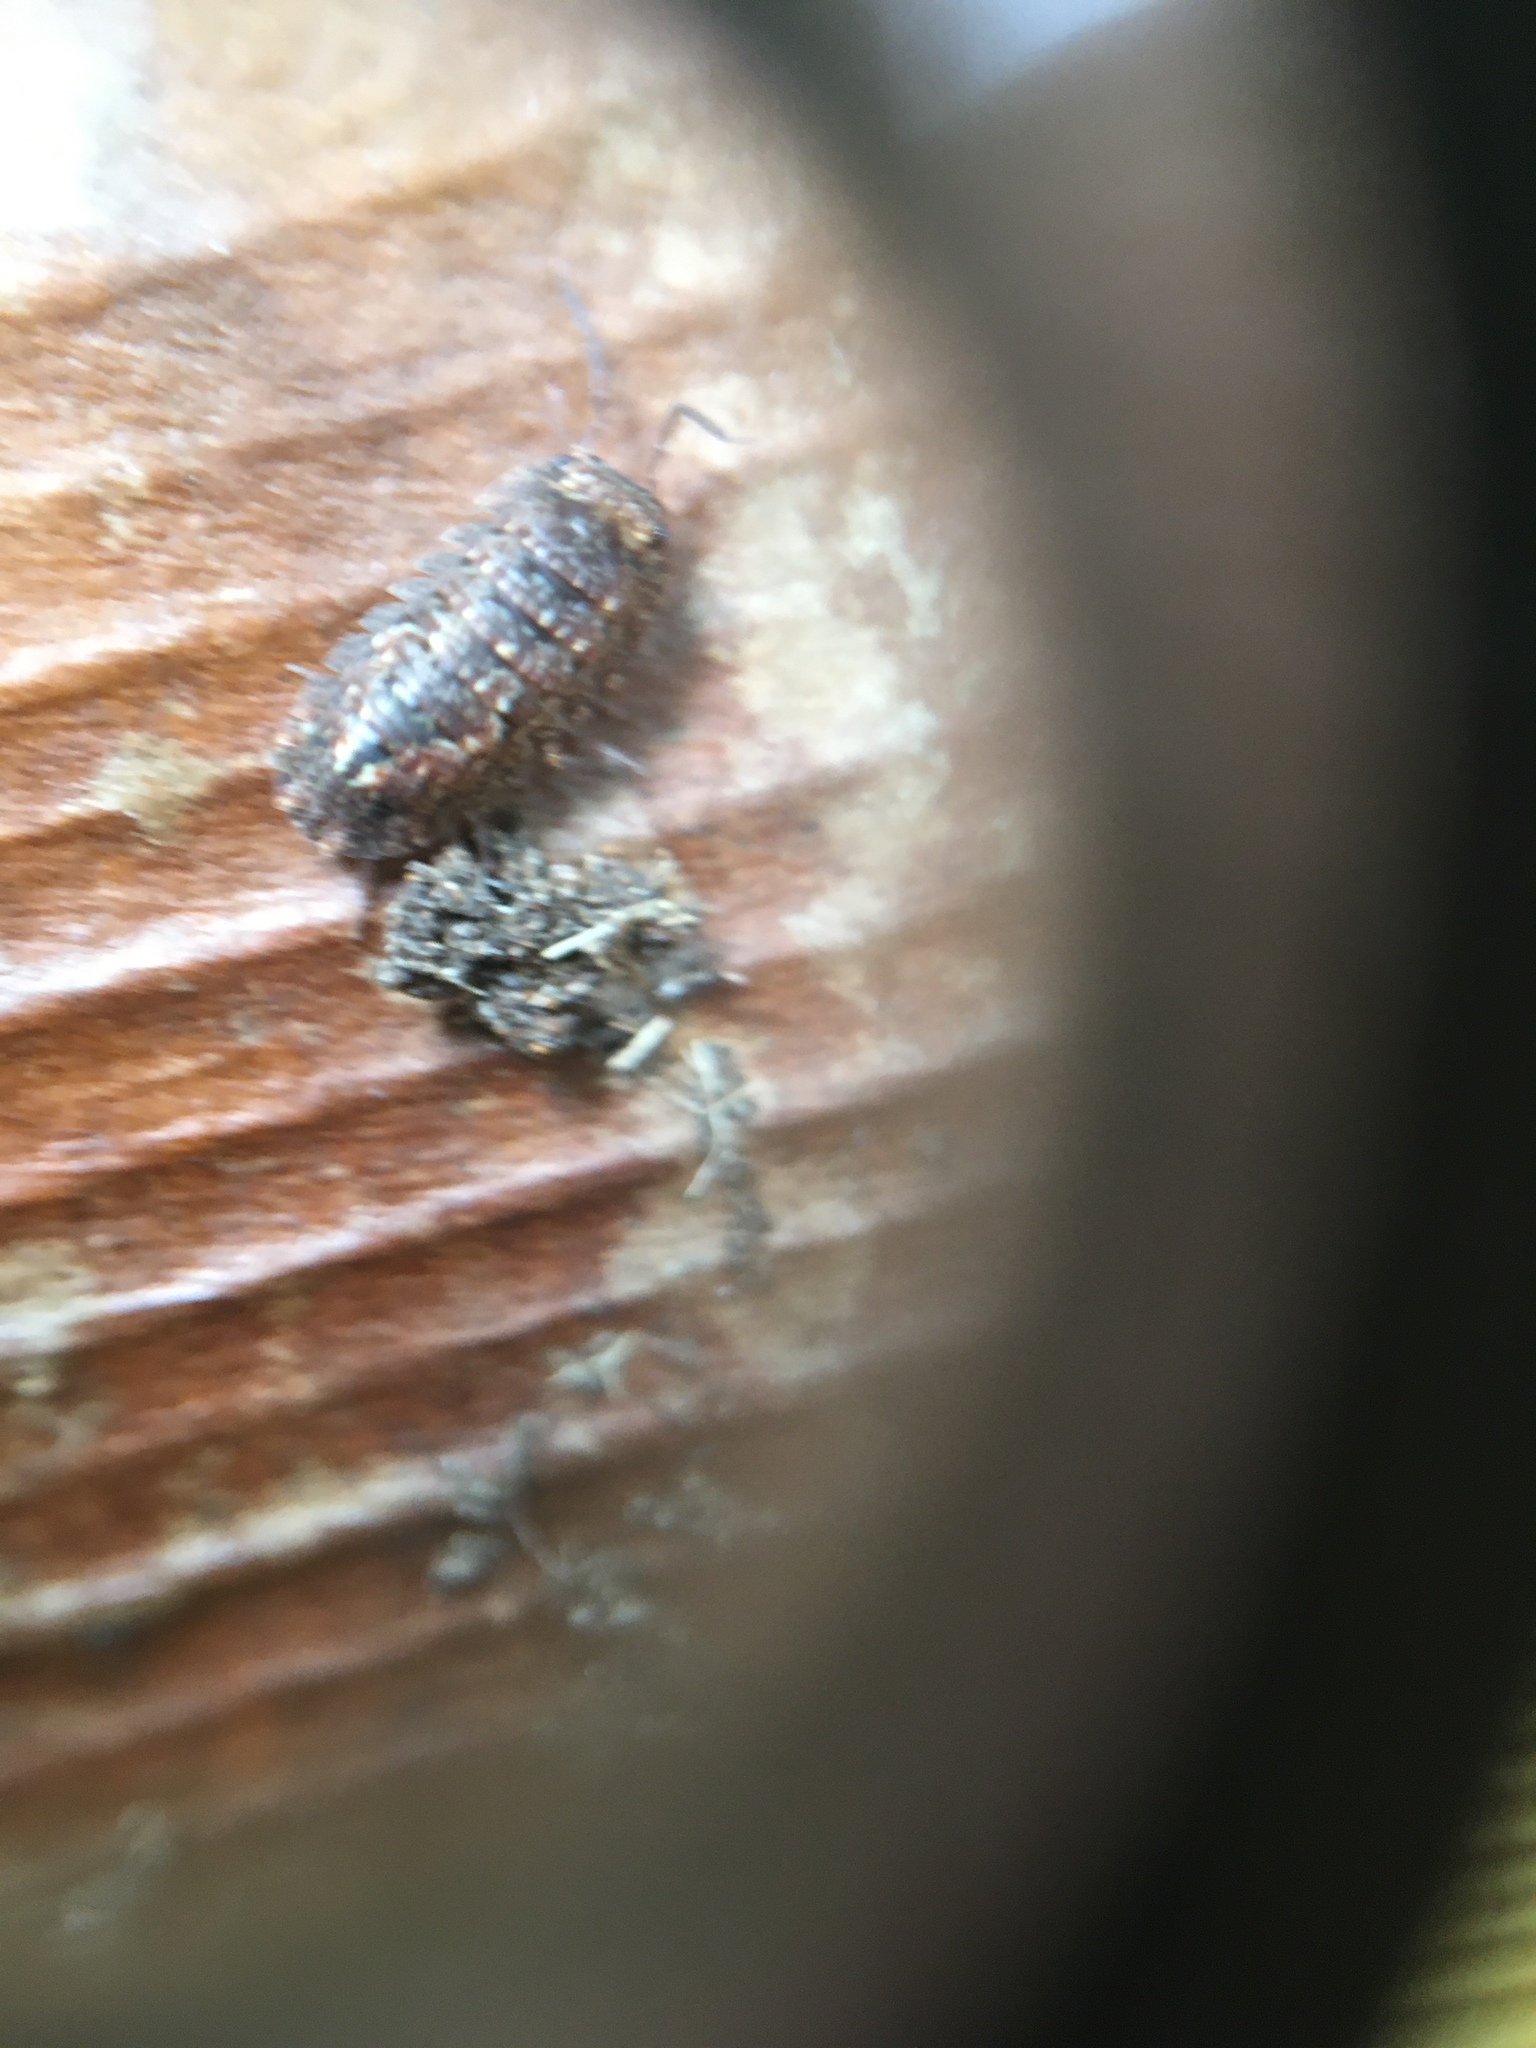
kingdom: Animalia
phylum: Arthropoda
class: Malacostraca
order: Isopoda
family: Armadillidae
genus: Cubaris
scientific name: Cubaris tarangensis
